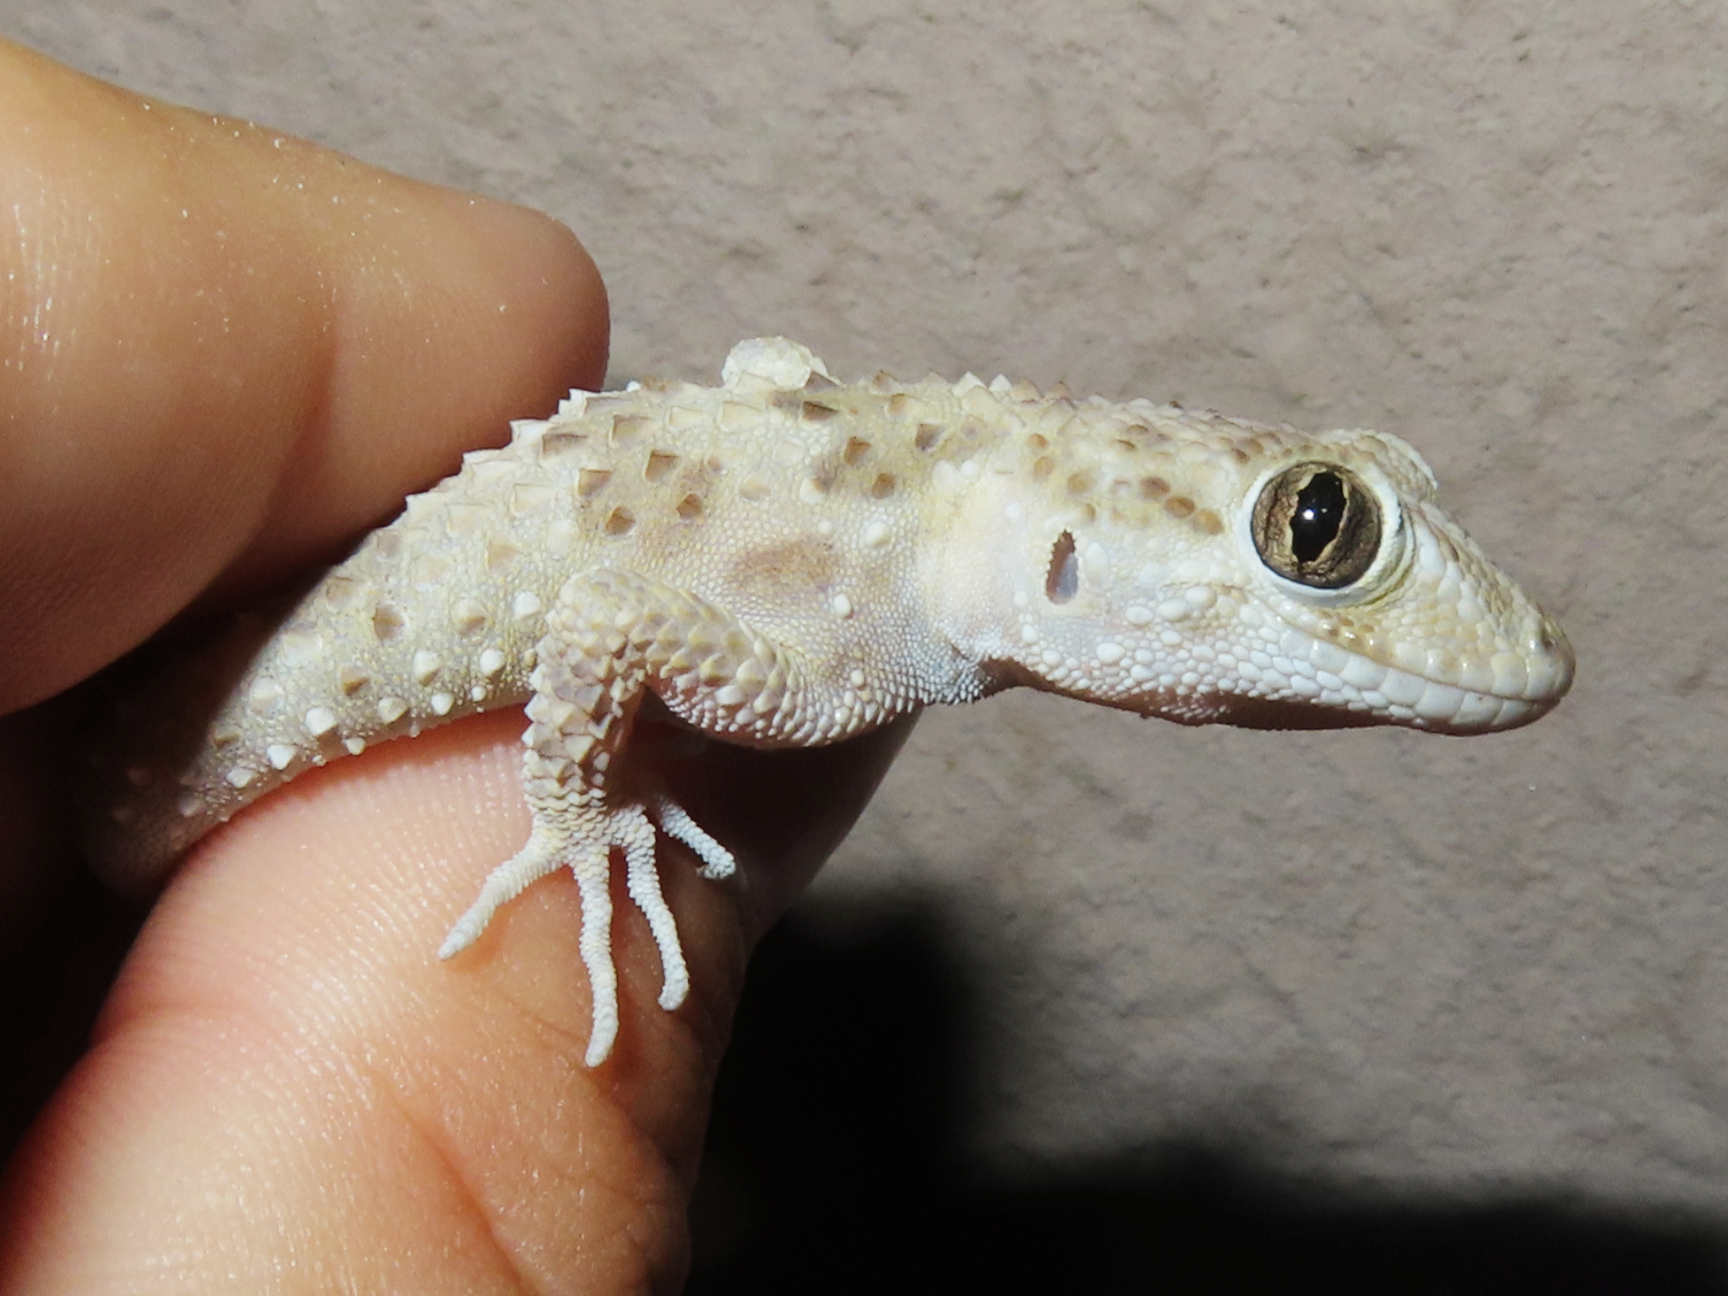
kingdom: Animalia
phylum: Chordata
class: Squamata
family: Gekkonidae
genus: Tenuidactylus
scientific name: Tenuidactylus caspius
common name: Caspian bent-toed gecko
